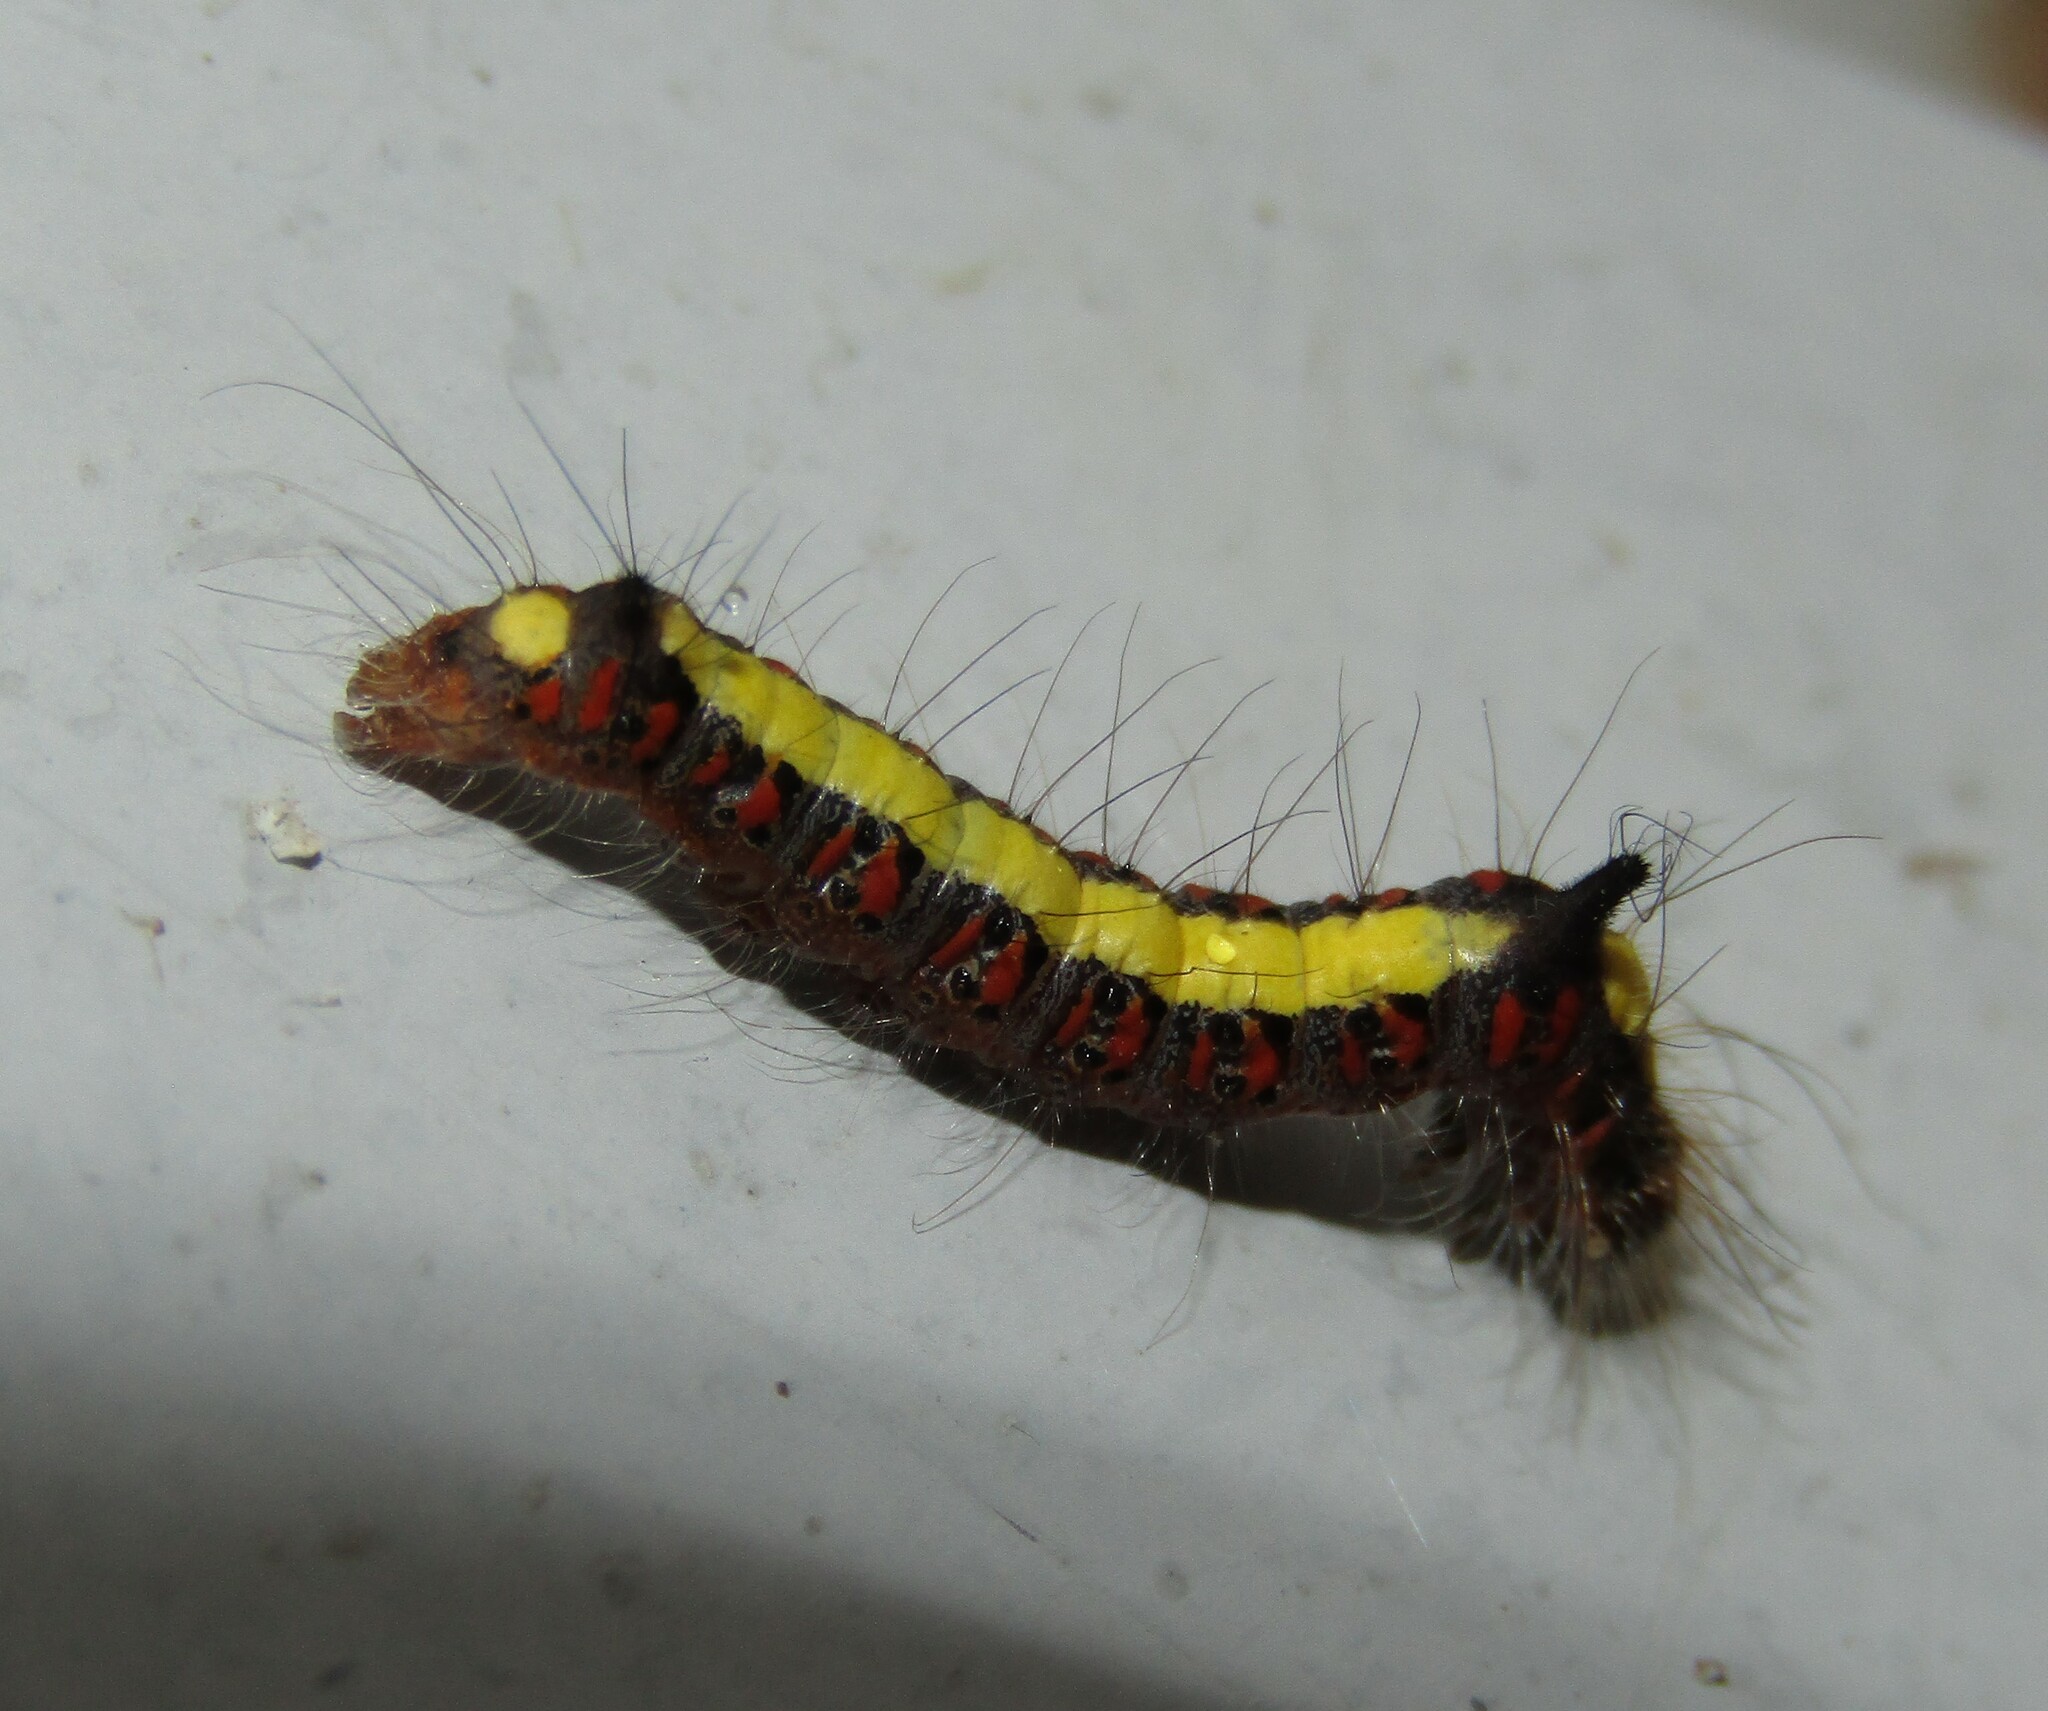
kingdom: Animalia
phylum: Arthropoda
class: Insecta
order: Lepidoptera
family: Noctuidae
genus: Acronicta
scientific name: Acronicta psi
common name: Grey dagger
